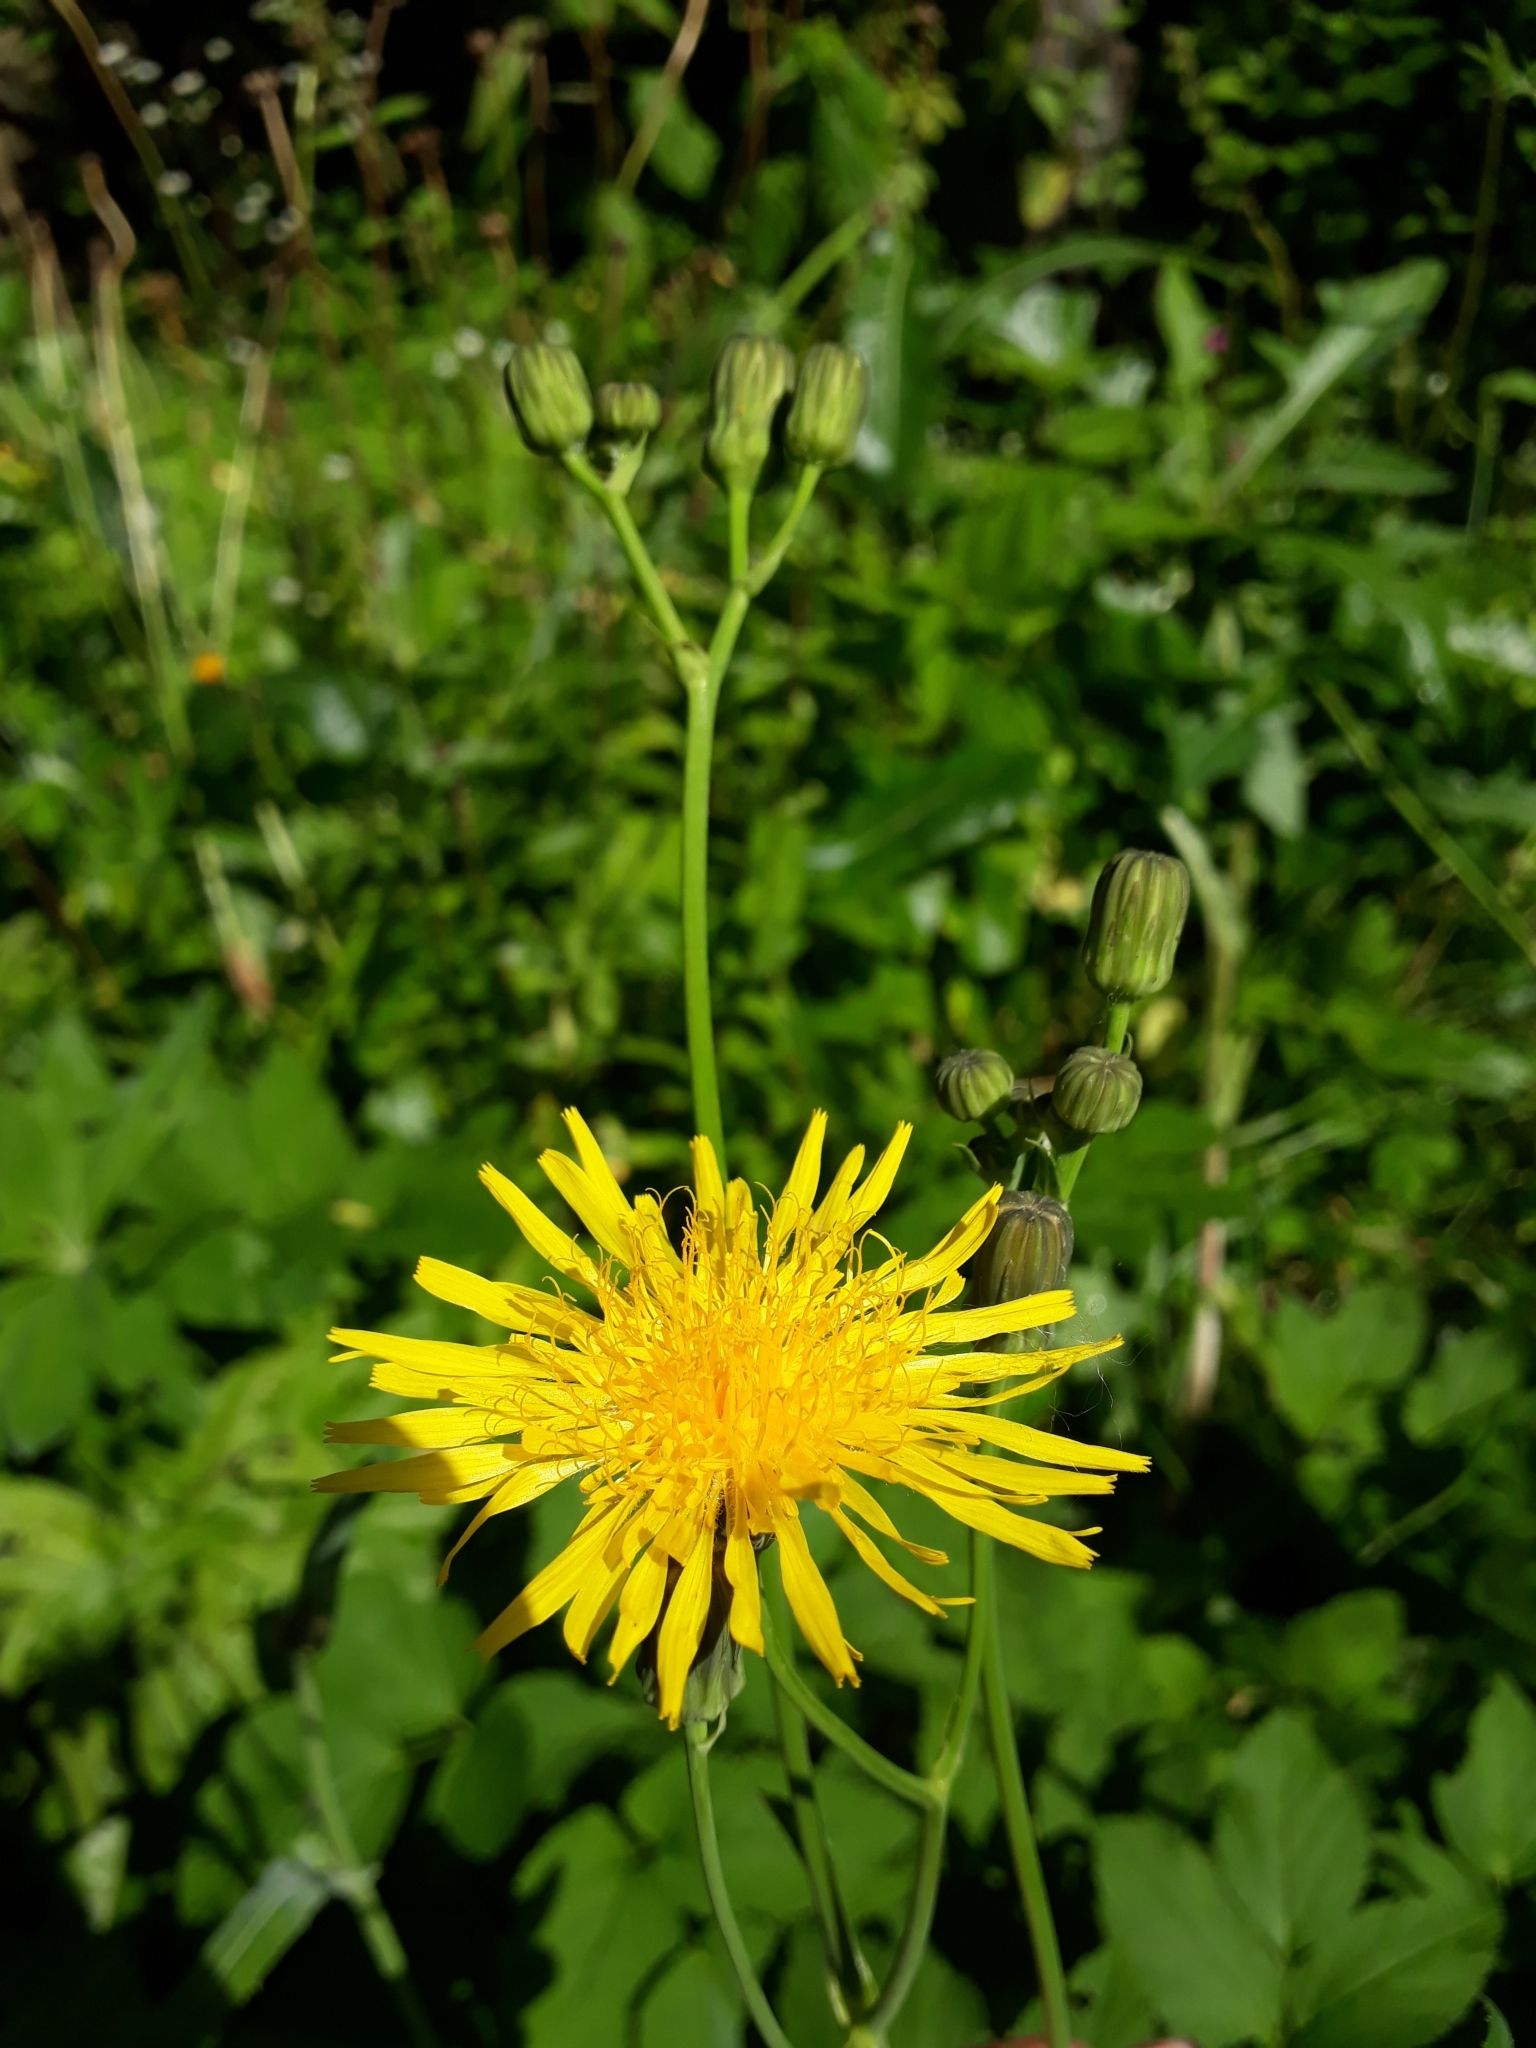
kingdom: Plantae
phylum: Tracheophyta
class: Magnoliopsida
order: Asterales
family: Asteraceae
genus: Sonchus
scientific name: Sonchus arvensis
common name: Perennial sow-thistle
